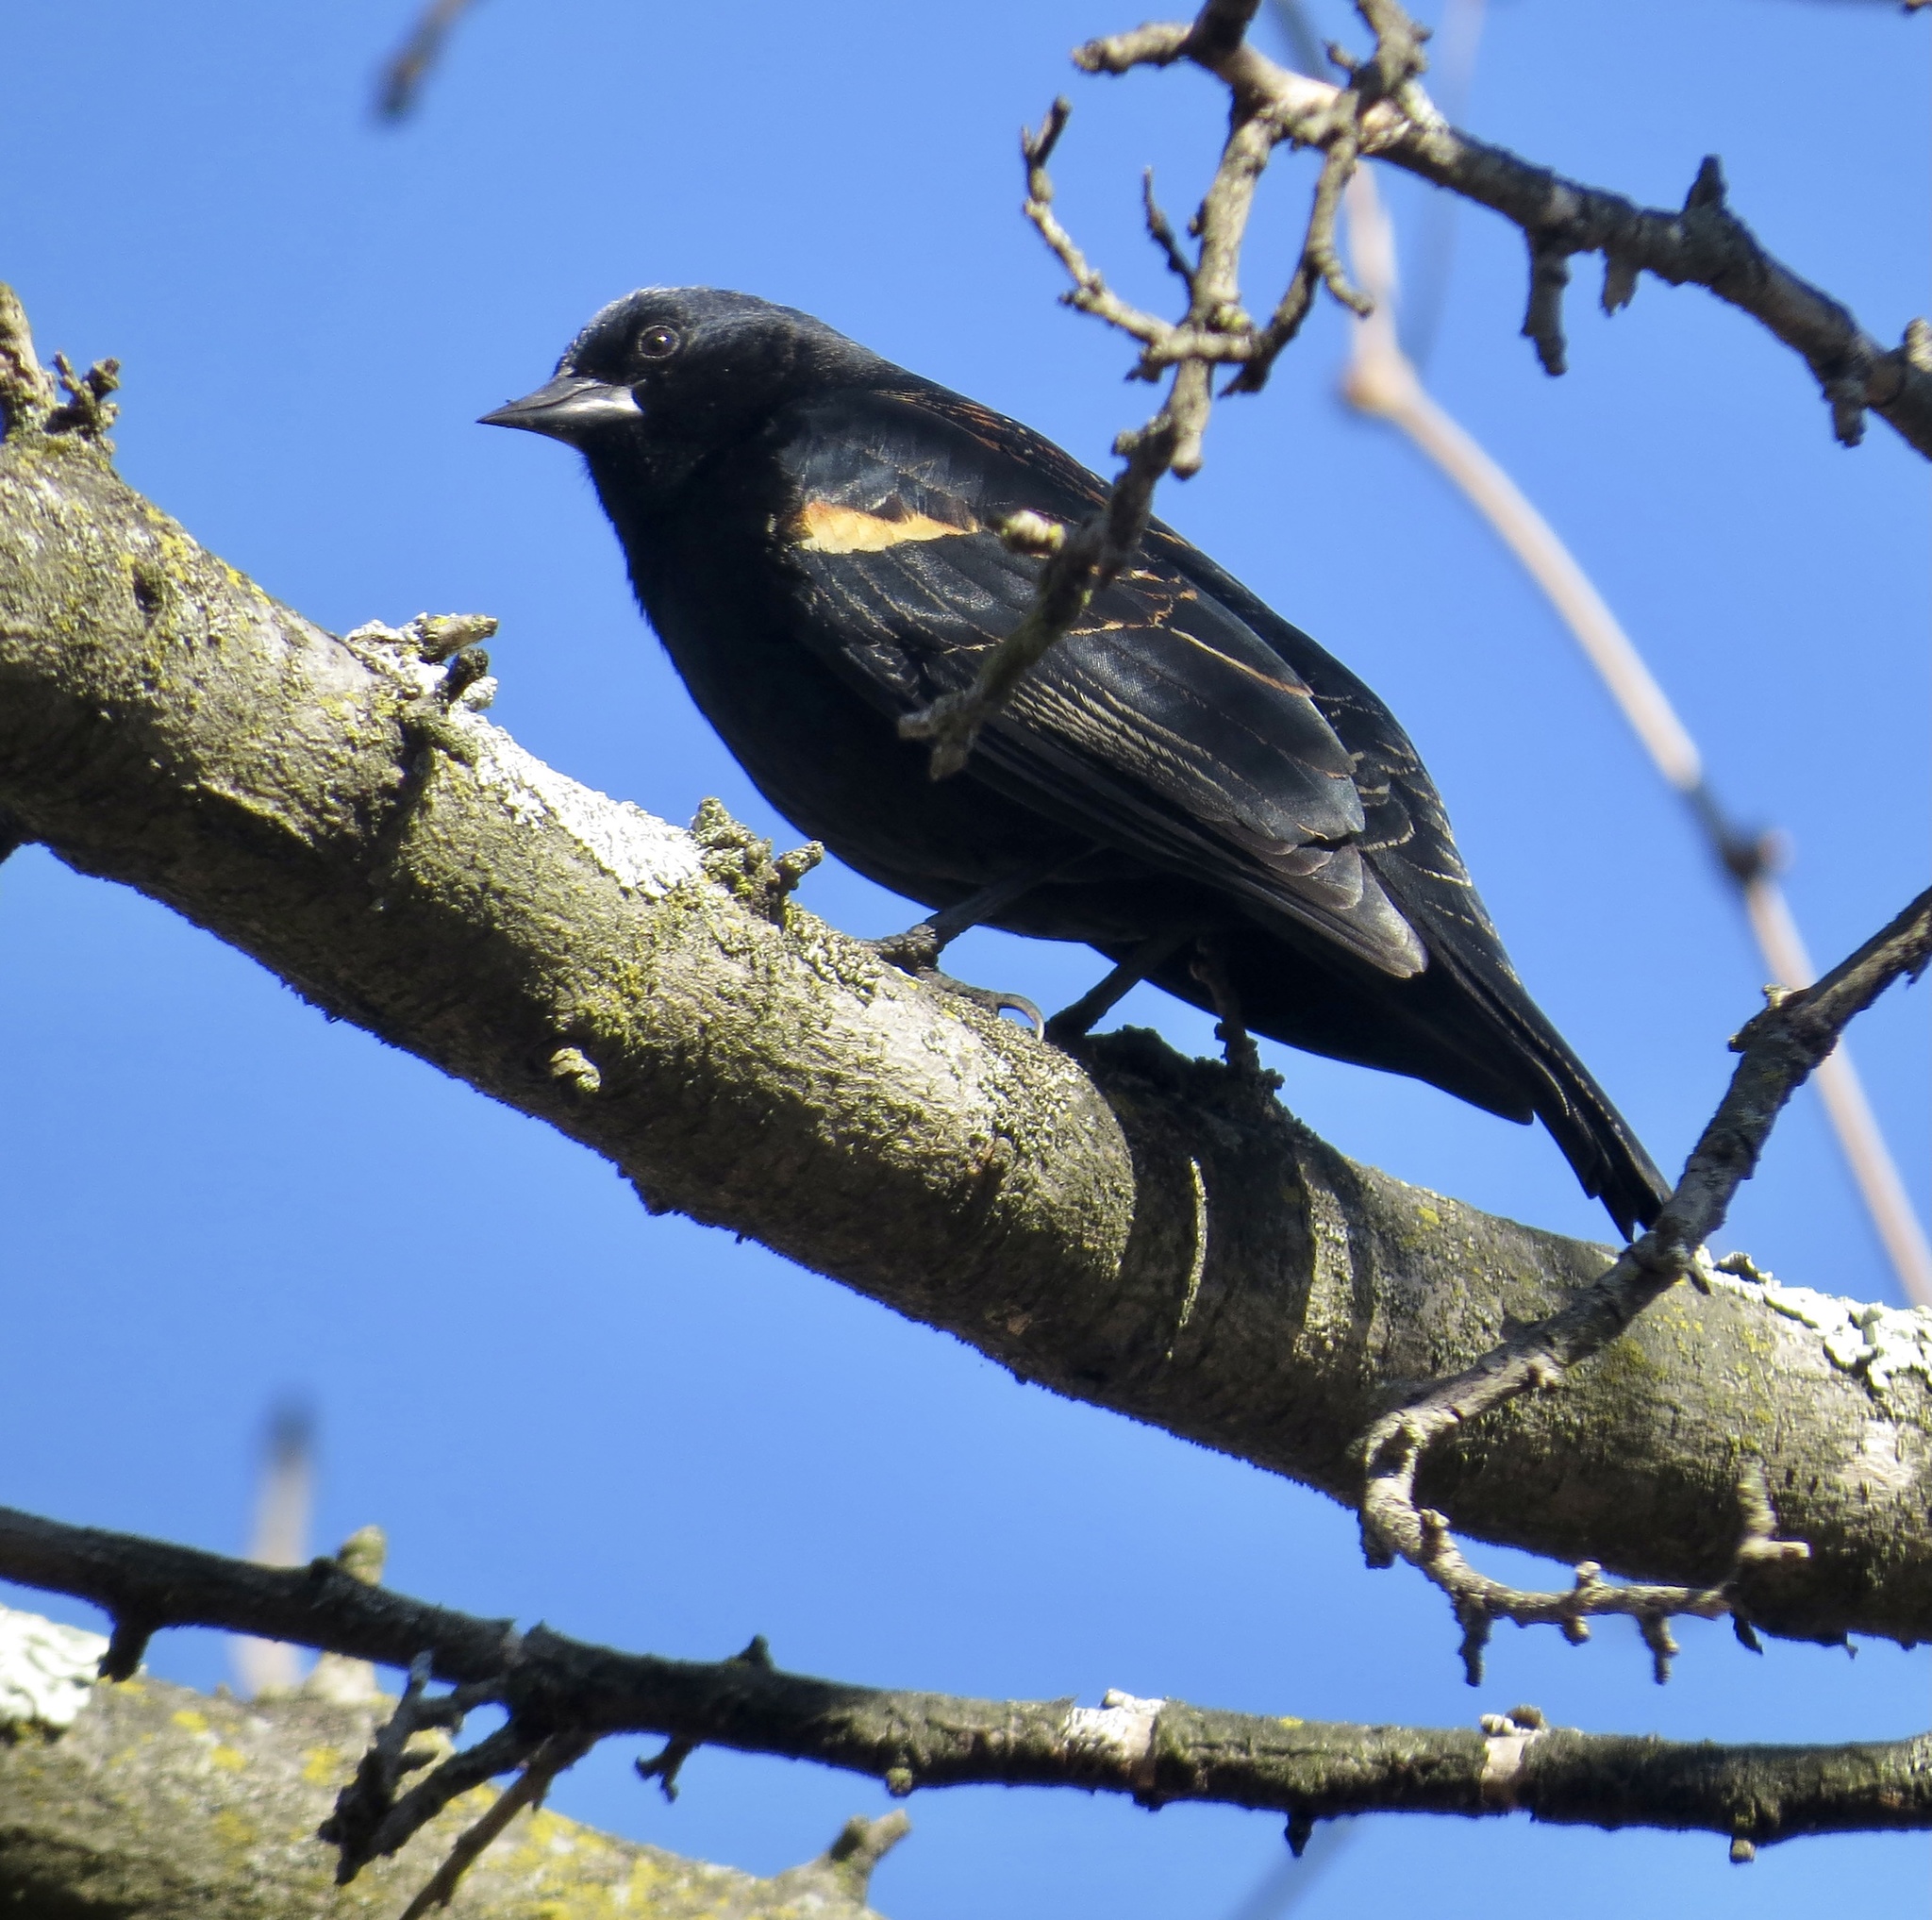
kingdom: Animalia
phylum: Chordata
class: Aves
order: Passeriformes
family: Icteridae
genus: Agelaius
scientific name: Agelaius phoeniceus
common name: Red-winged blackbird
